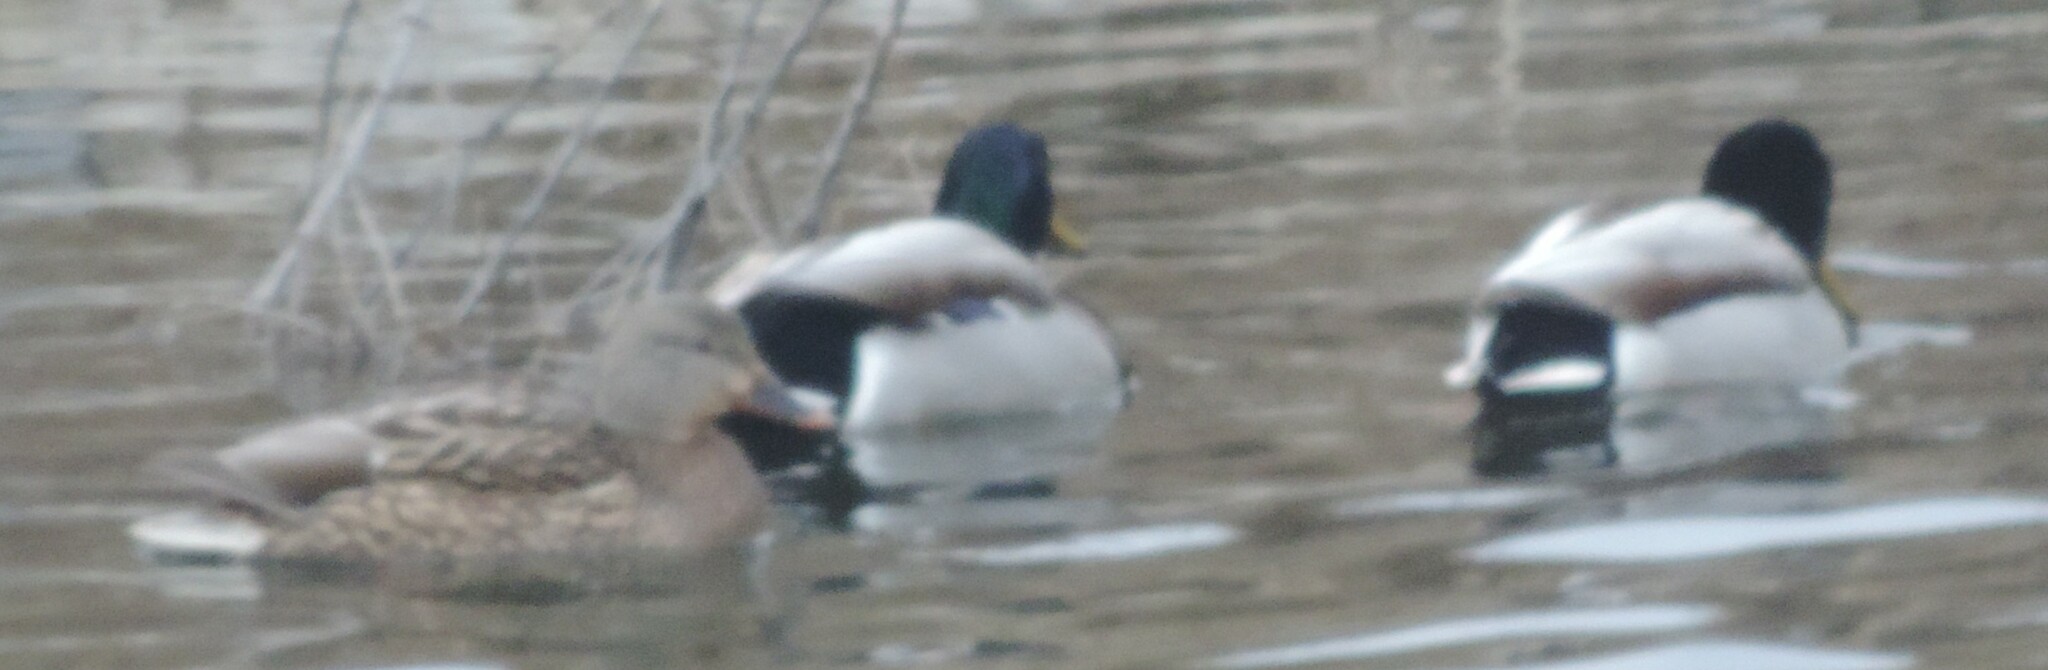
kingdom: Animalia
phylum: Chordata
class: Aves
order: Anseriformes
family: Anatidae
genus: Anas
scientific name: Anas platyrhynchos
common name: Mallard
